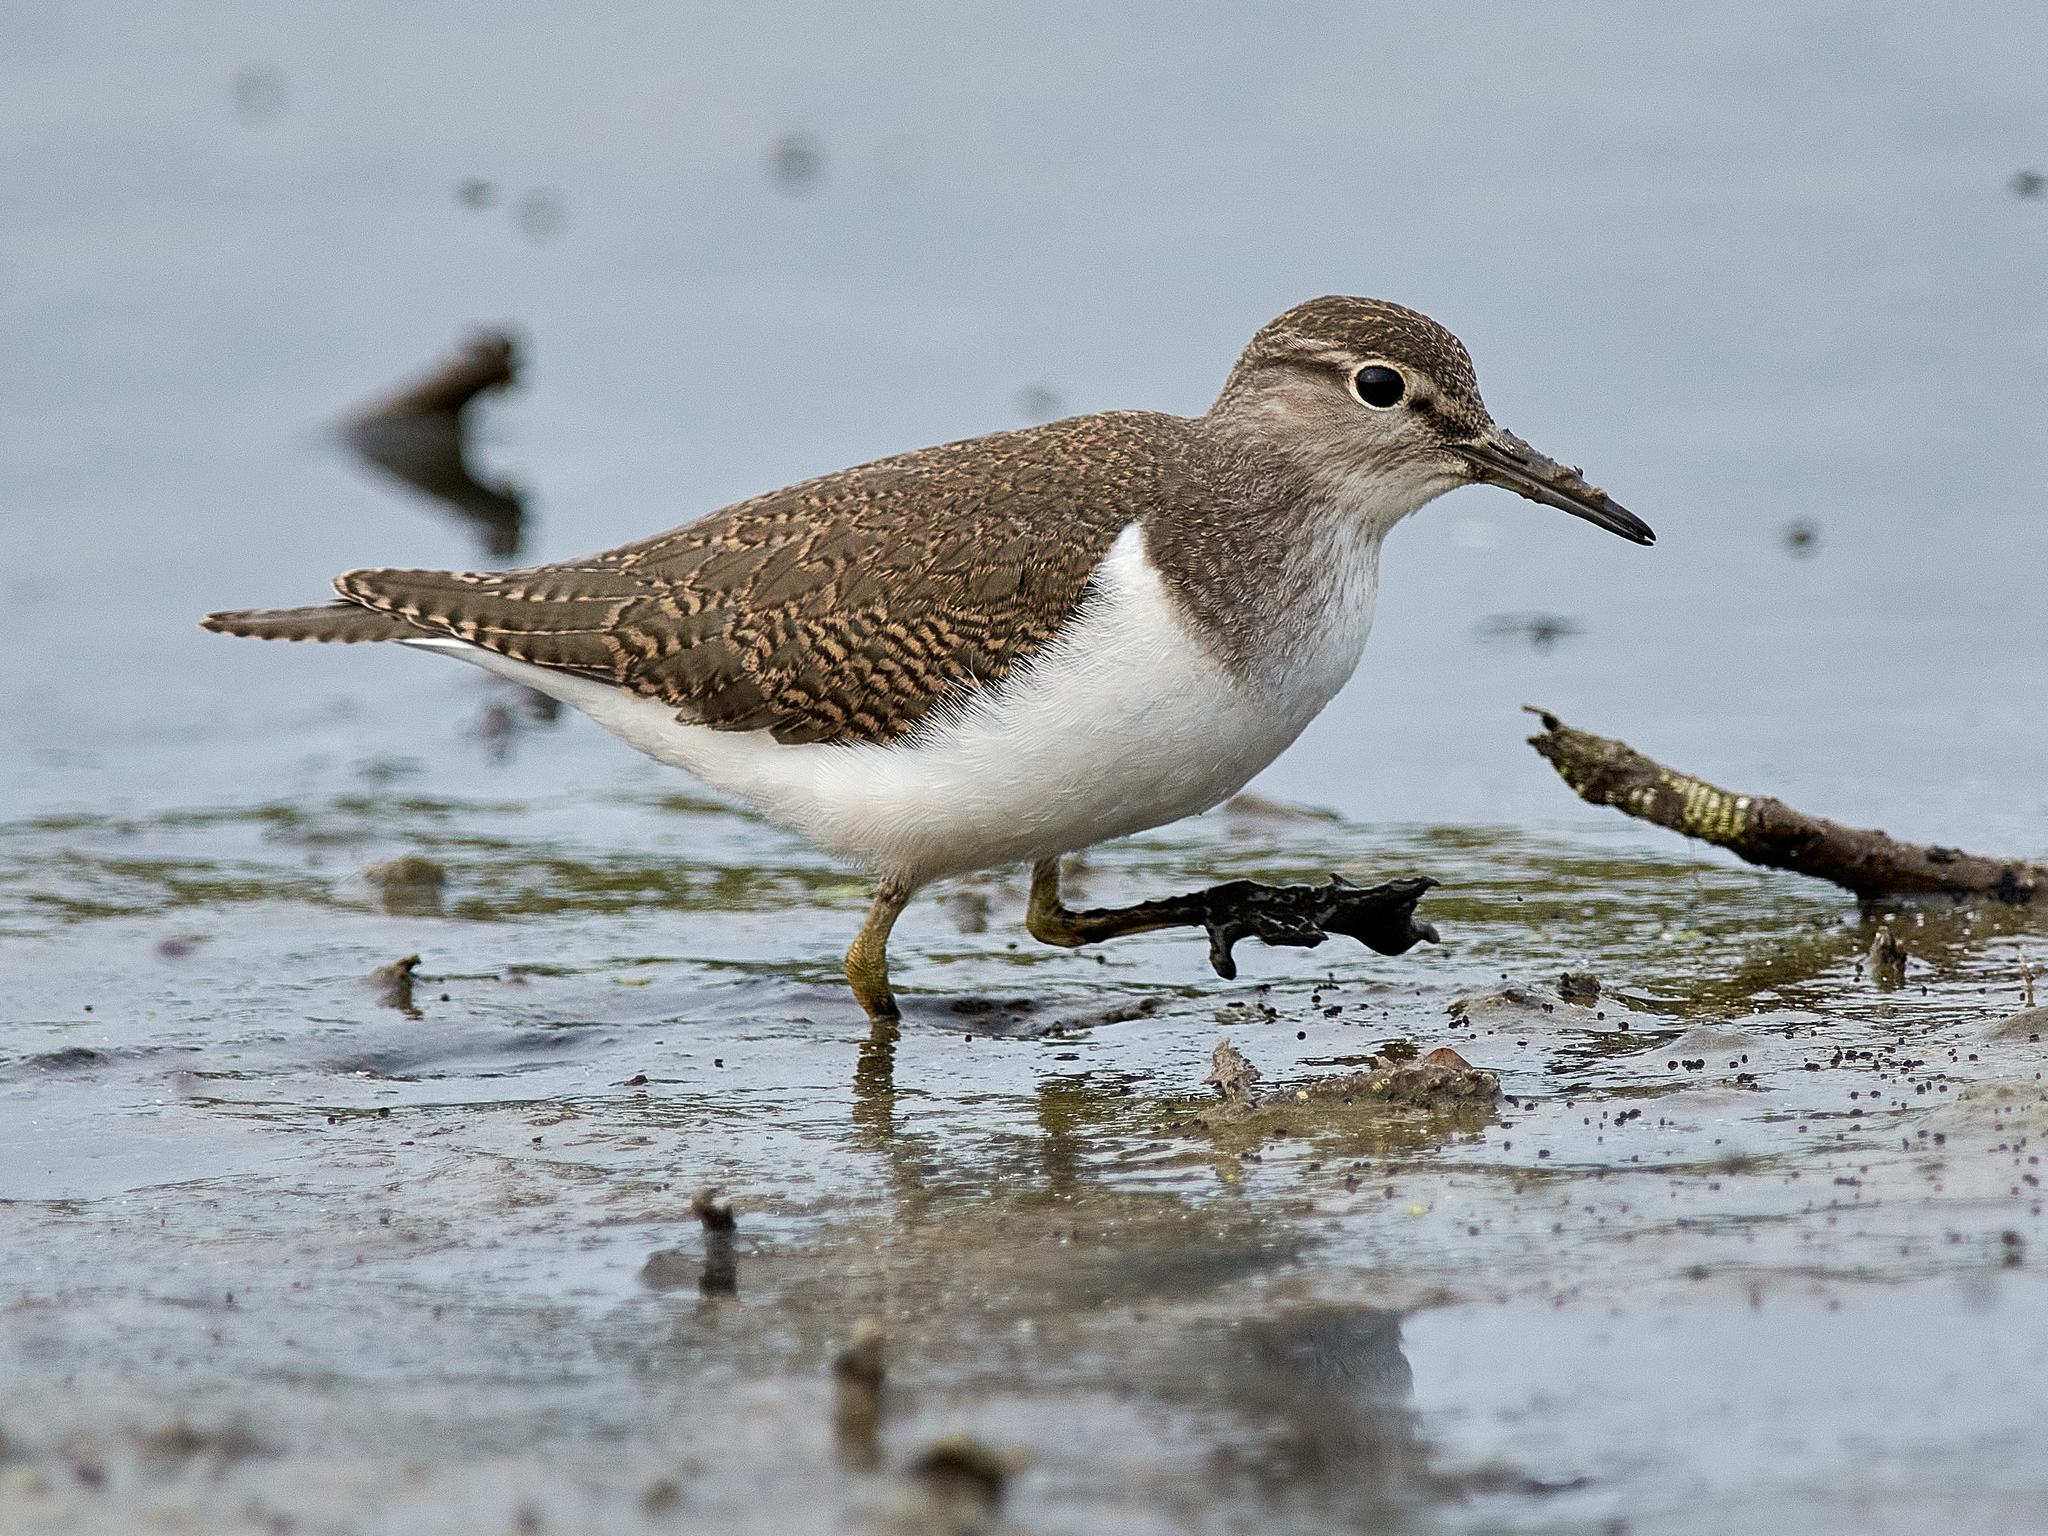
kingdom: Animalia
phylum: Chordata
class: Aves
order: Charadriiformes
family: Scolopacidae
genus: Actitis
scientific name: Actitis hypoleucos
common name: Common sandpiper
